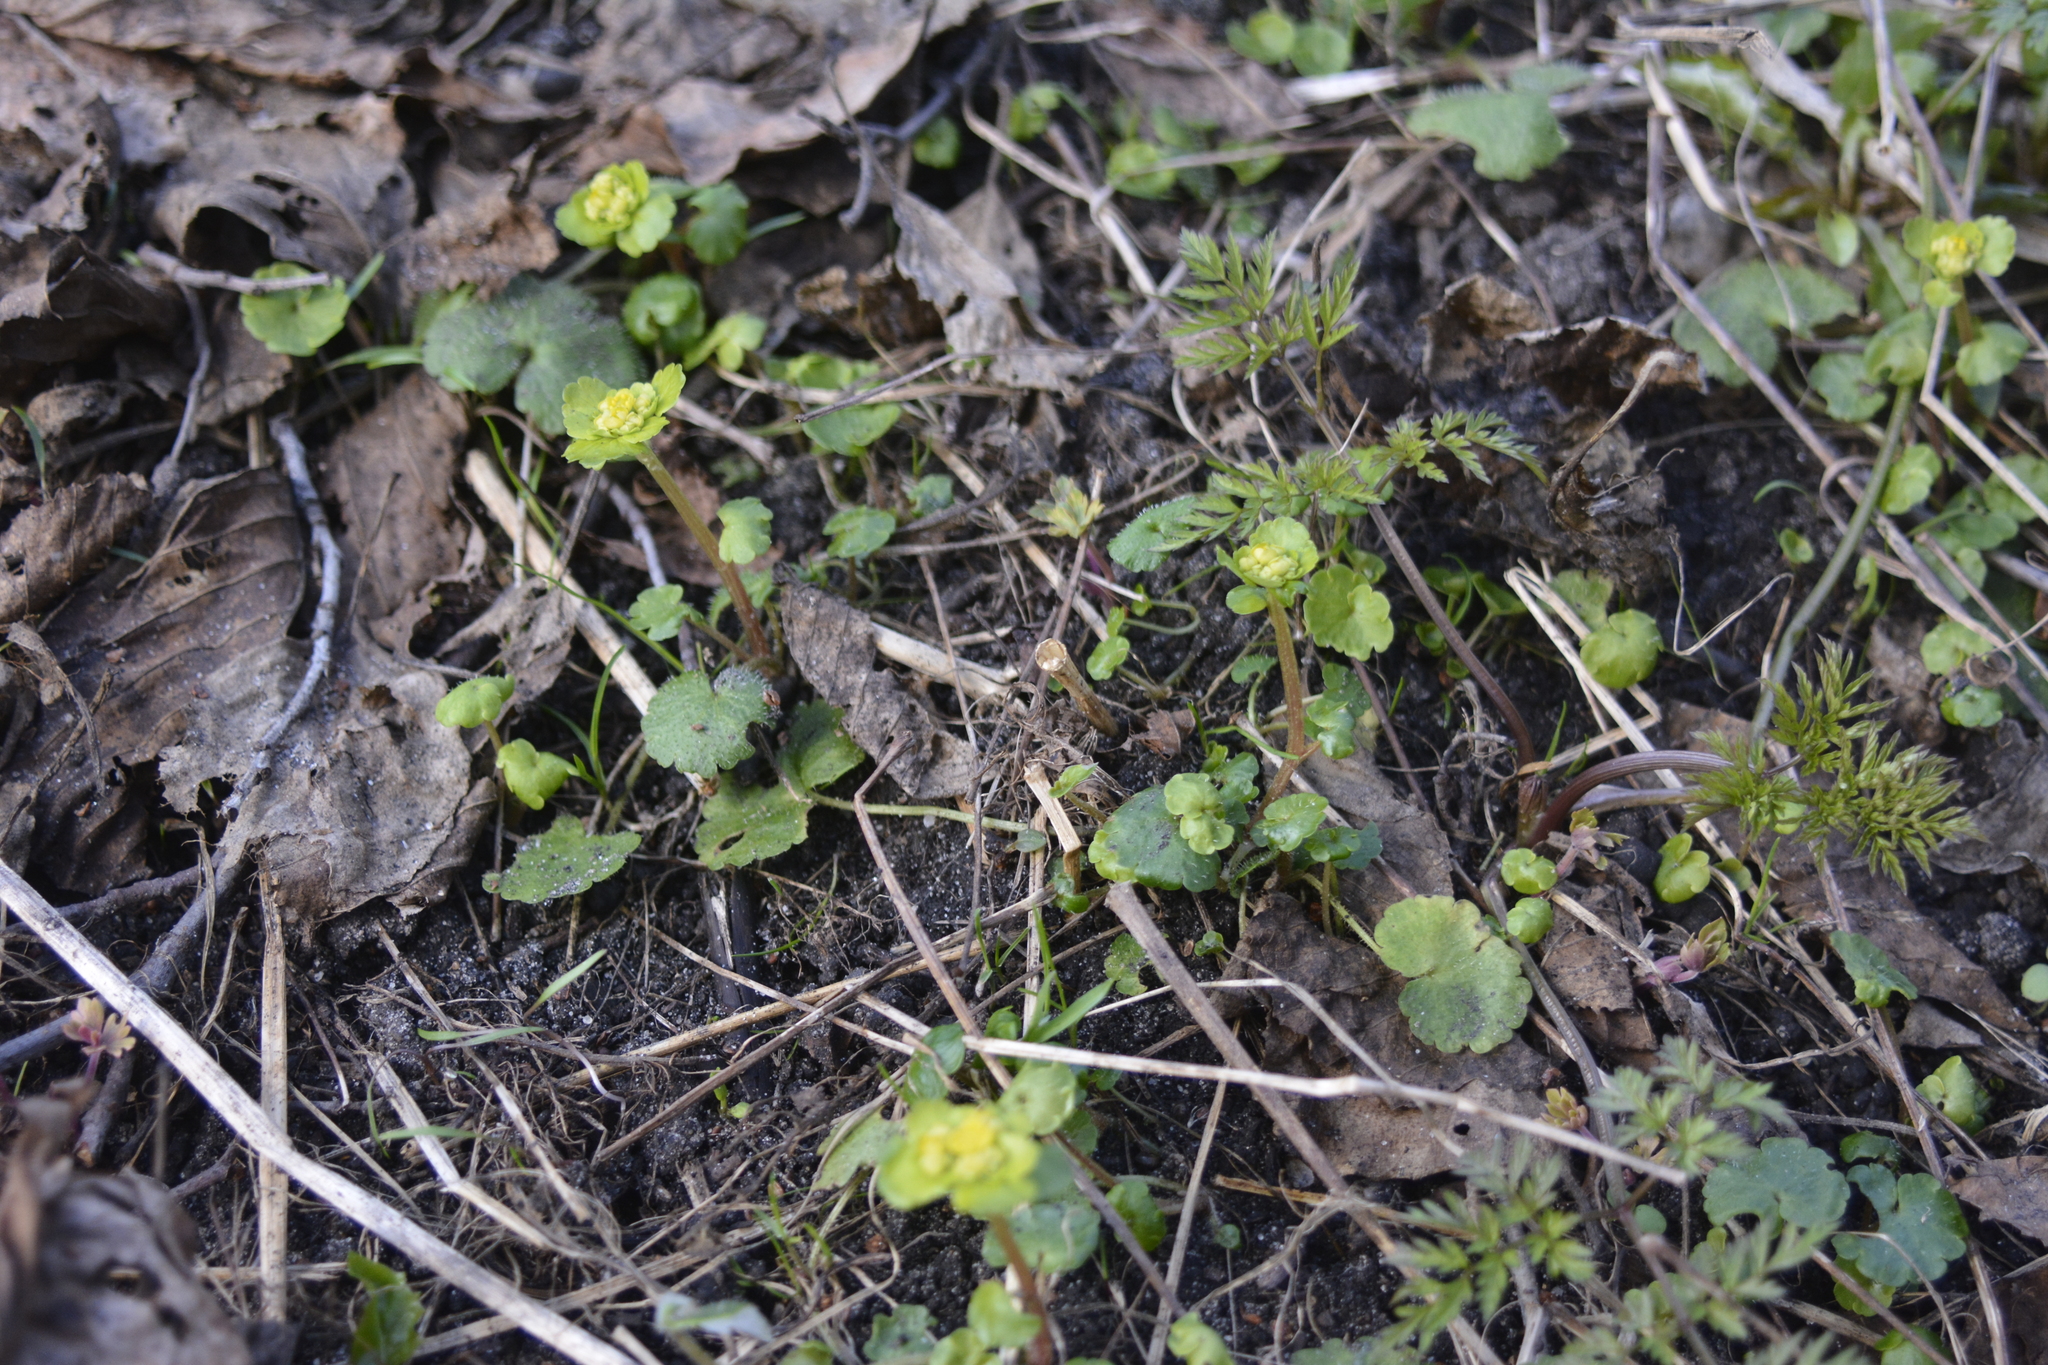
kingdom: Plantae
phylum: Tracheophyta
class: Magnoliopsida
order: Saxifragales
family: Saxifragaceae
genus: Chrysosplenium
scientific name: Chrysosplenium alternifolium
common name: Alternate-leaved golden-saxifrage
